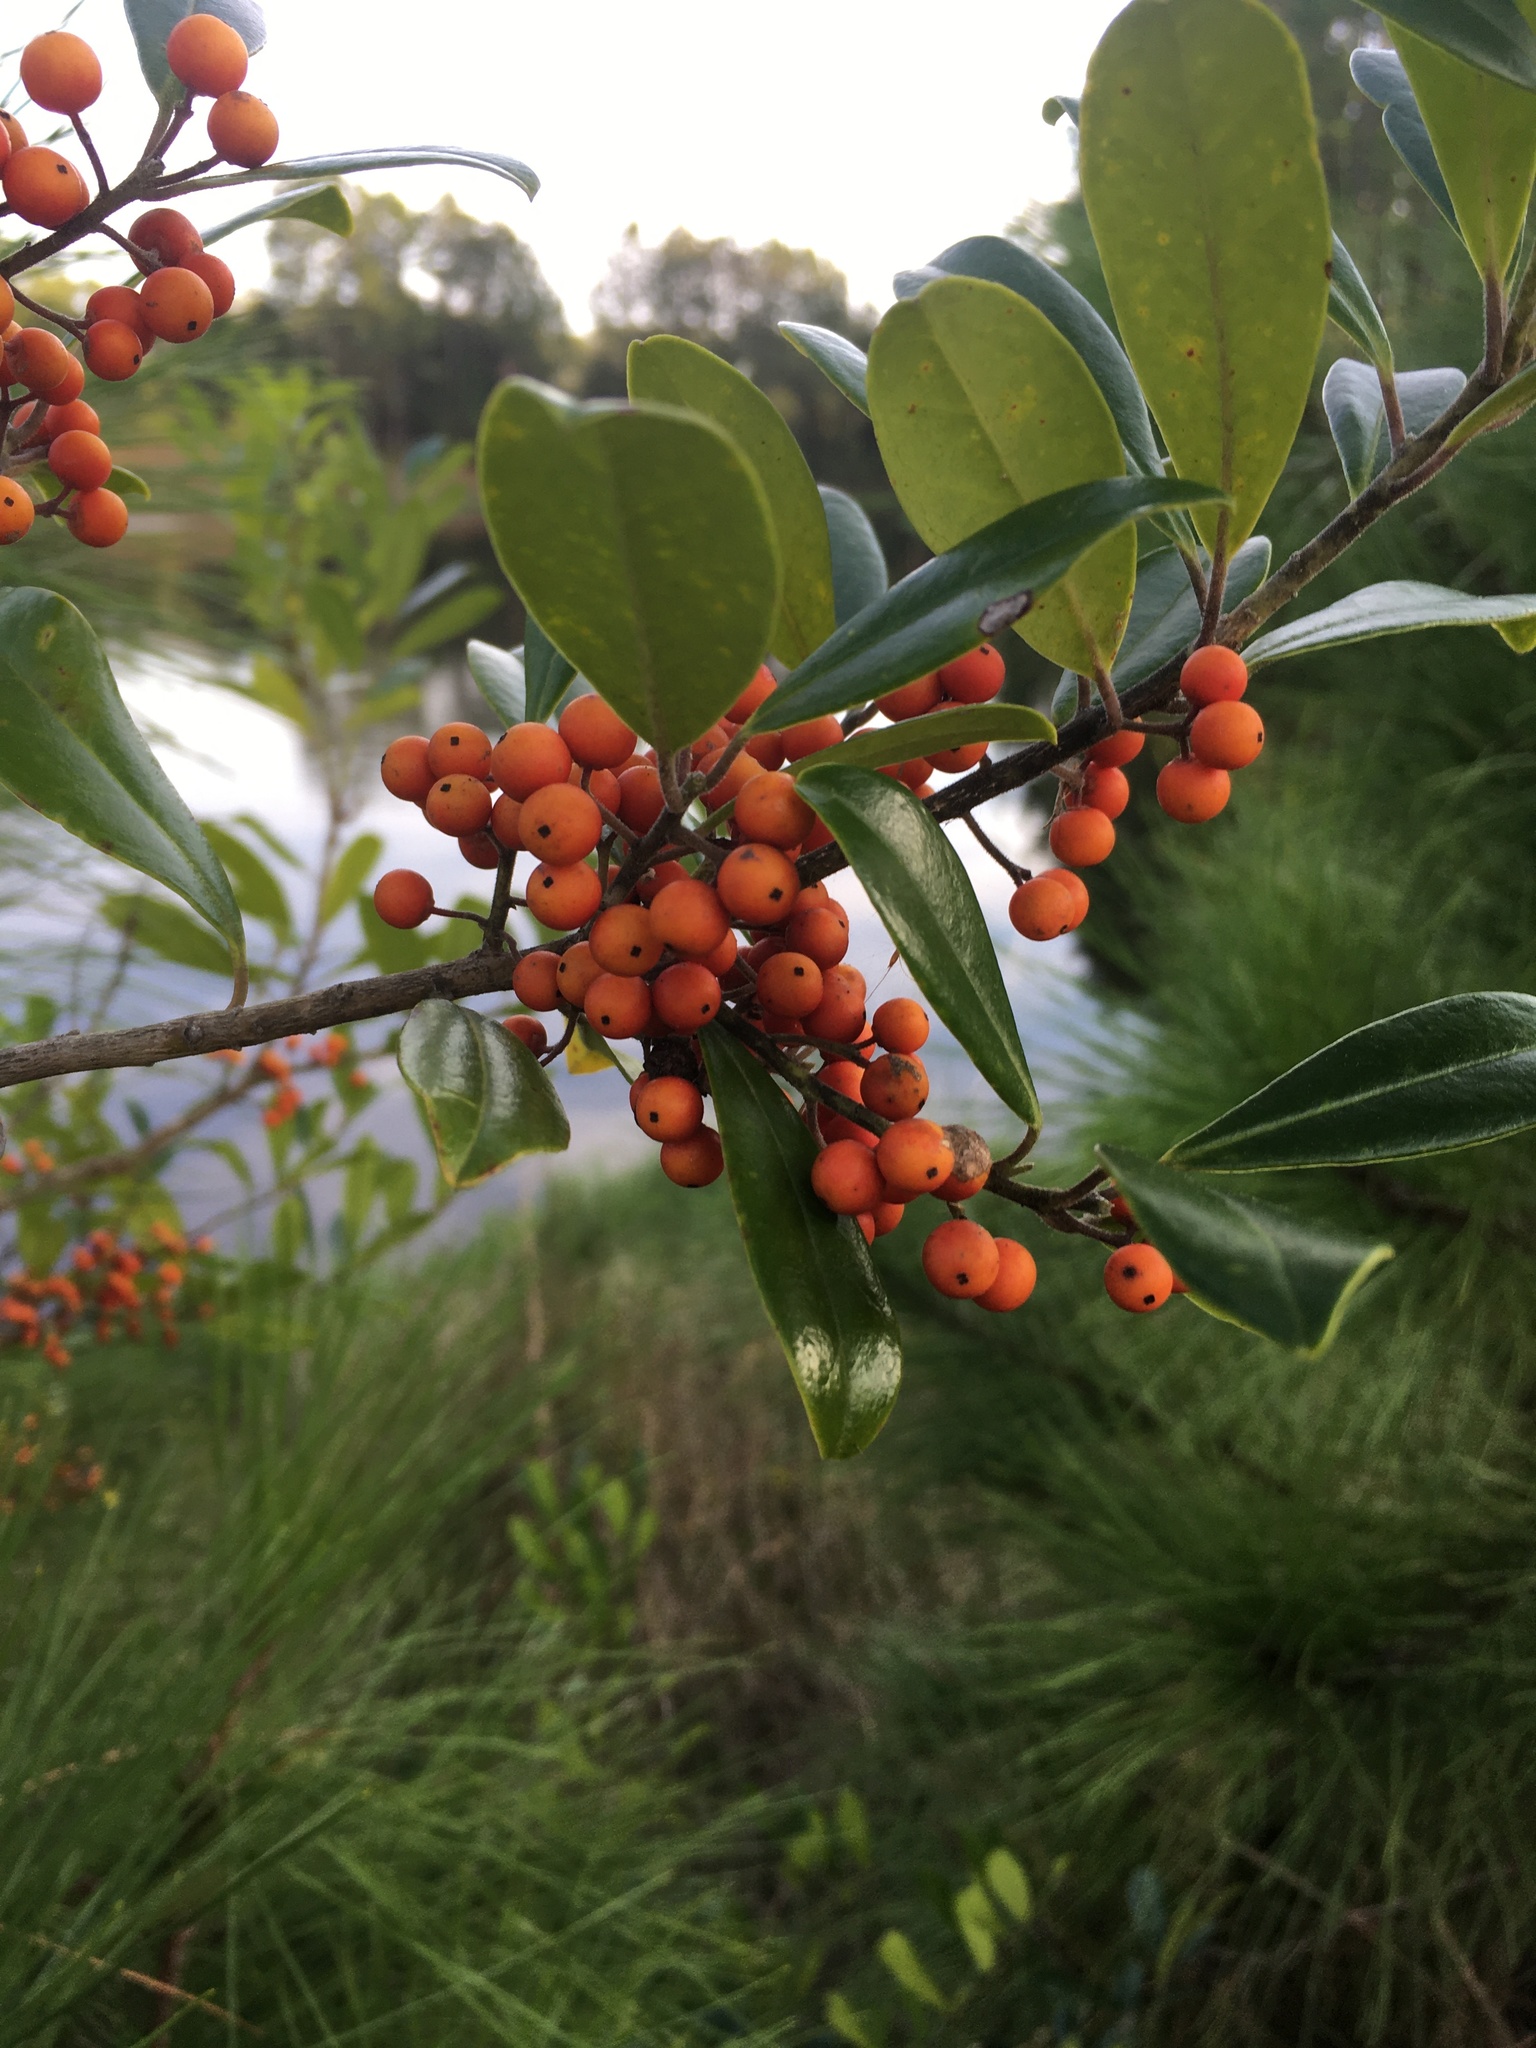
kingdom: Plantae
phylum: Tracheophyta
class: Magnoliopsida
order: Aquifoliales
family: Aquifoliaceae
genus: Ilex
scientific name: Ilex cassine
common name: Dahoon
